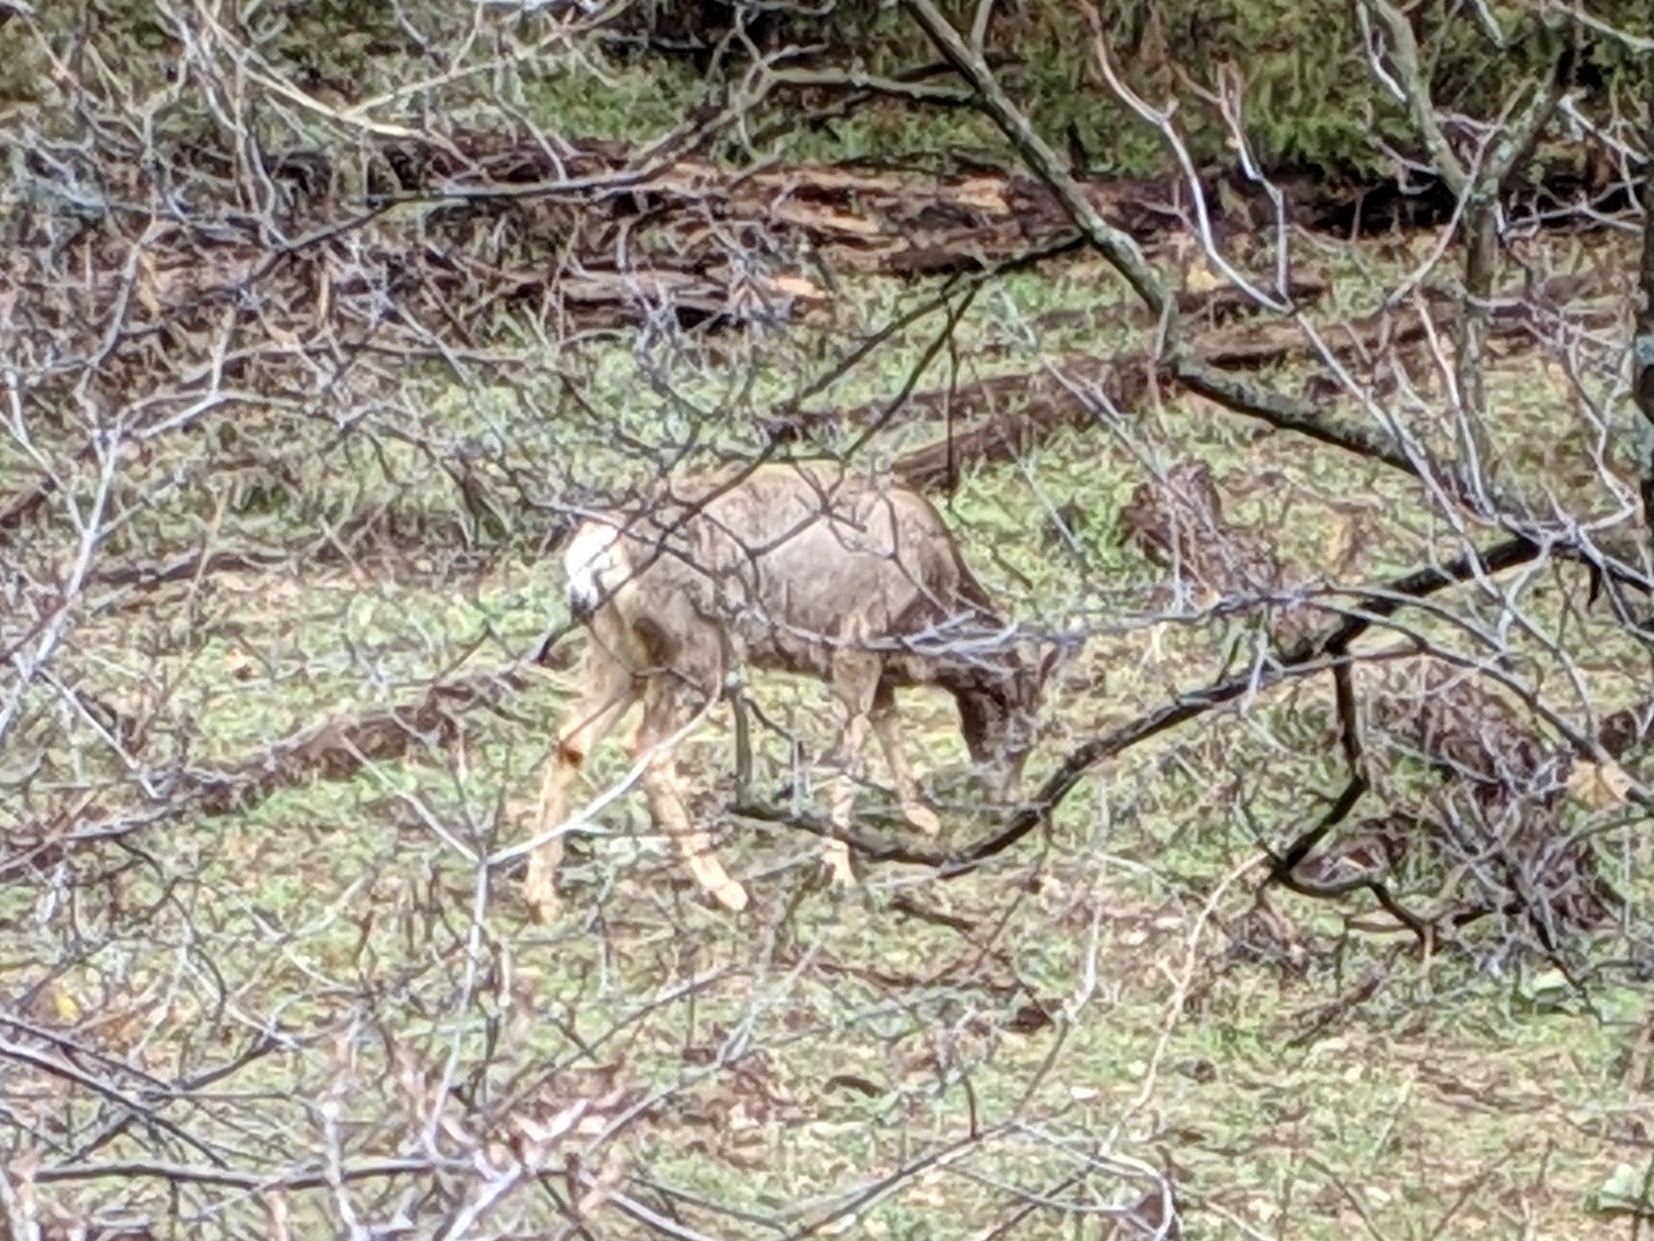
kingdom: Animalia
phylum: Chordata
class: Mammalia
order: Artiodactyla
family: Cervidae
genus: Odocoileus
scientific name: Odocoileus hemionus
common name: Mule deer
